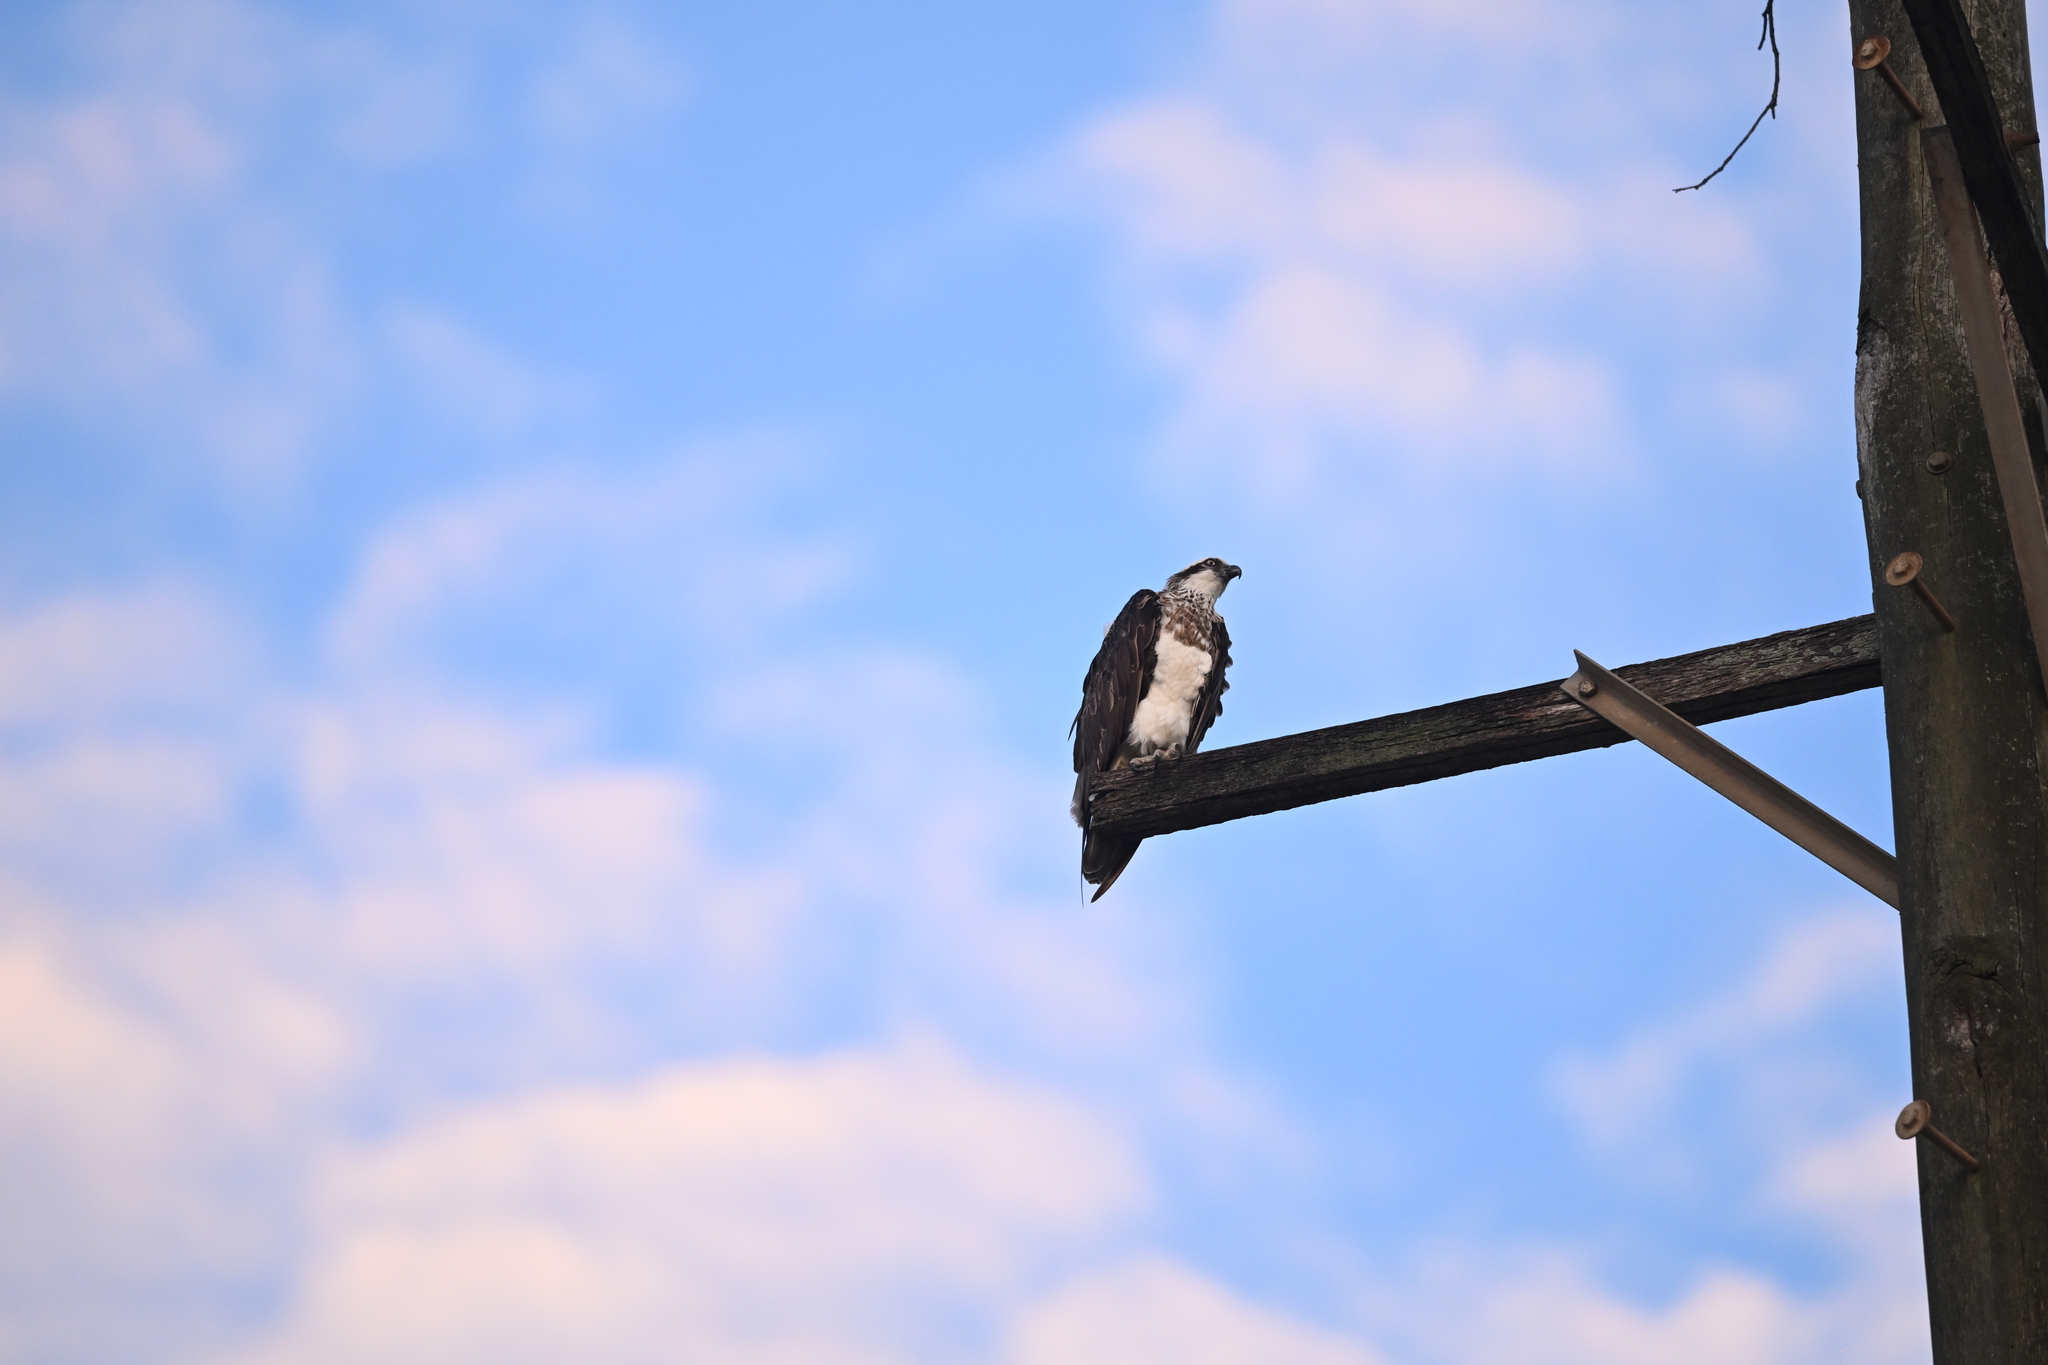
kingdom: Animalia
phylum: Chordata
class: Aves
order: Accipitriformes
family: Pandionidae
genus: Pandion
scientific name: Pandion haliaetus
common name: Osprey
